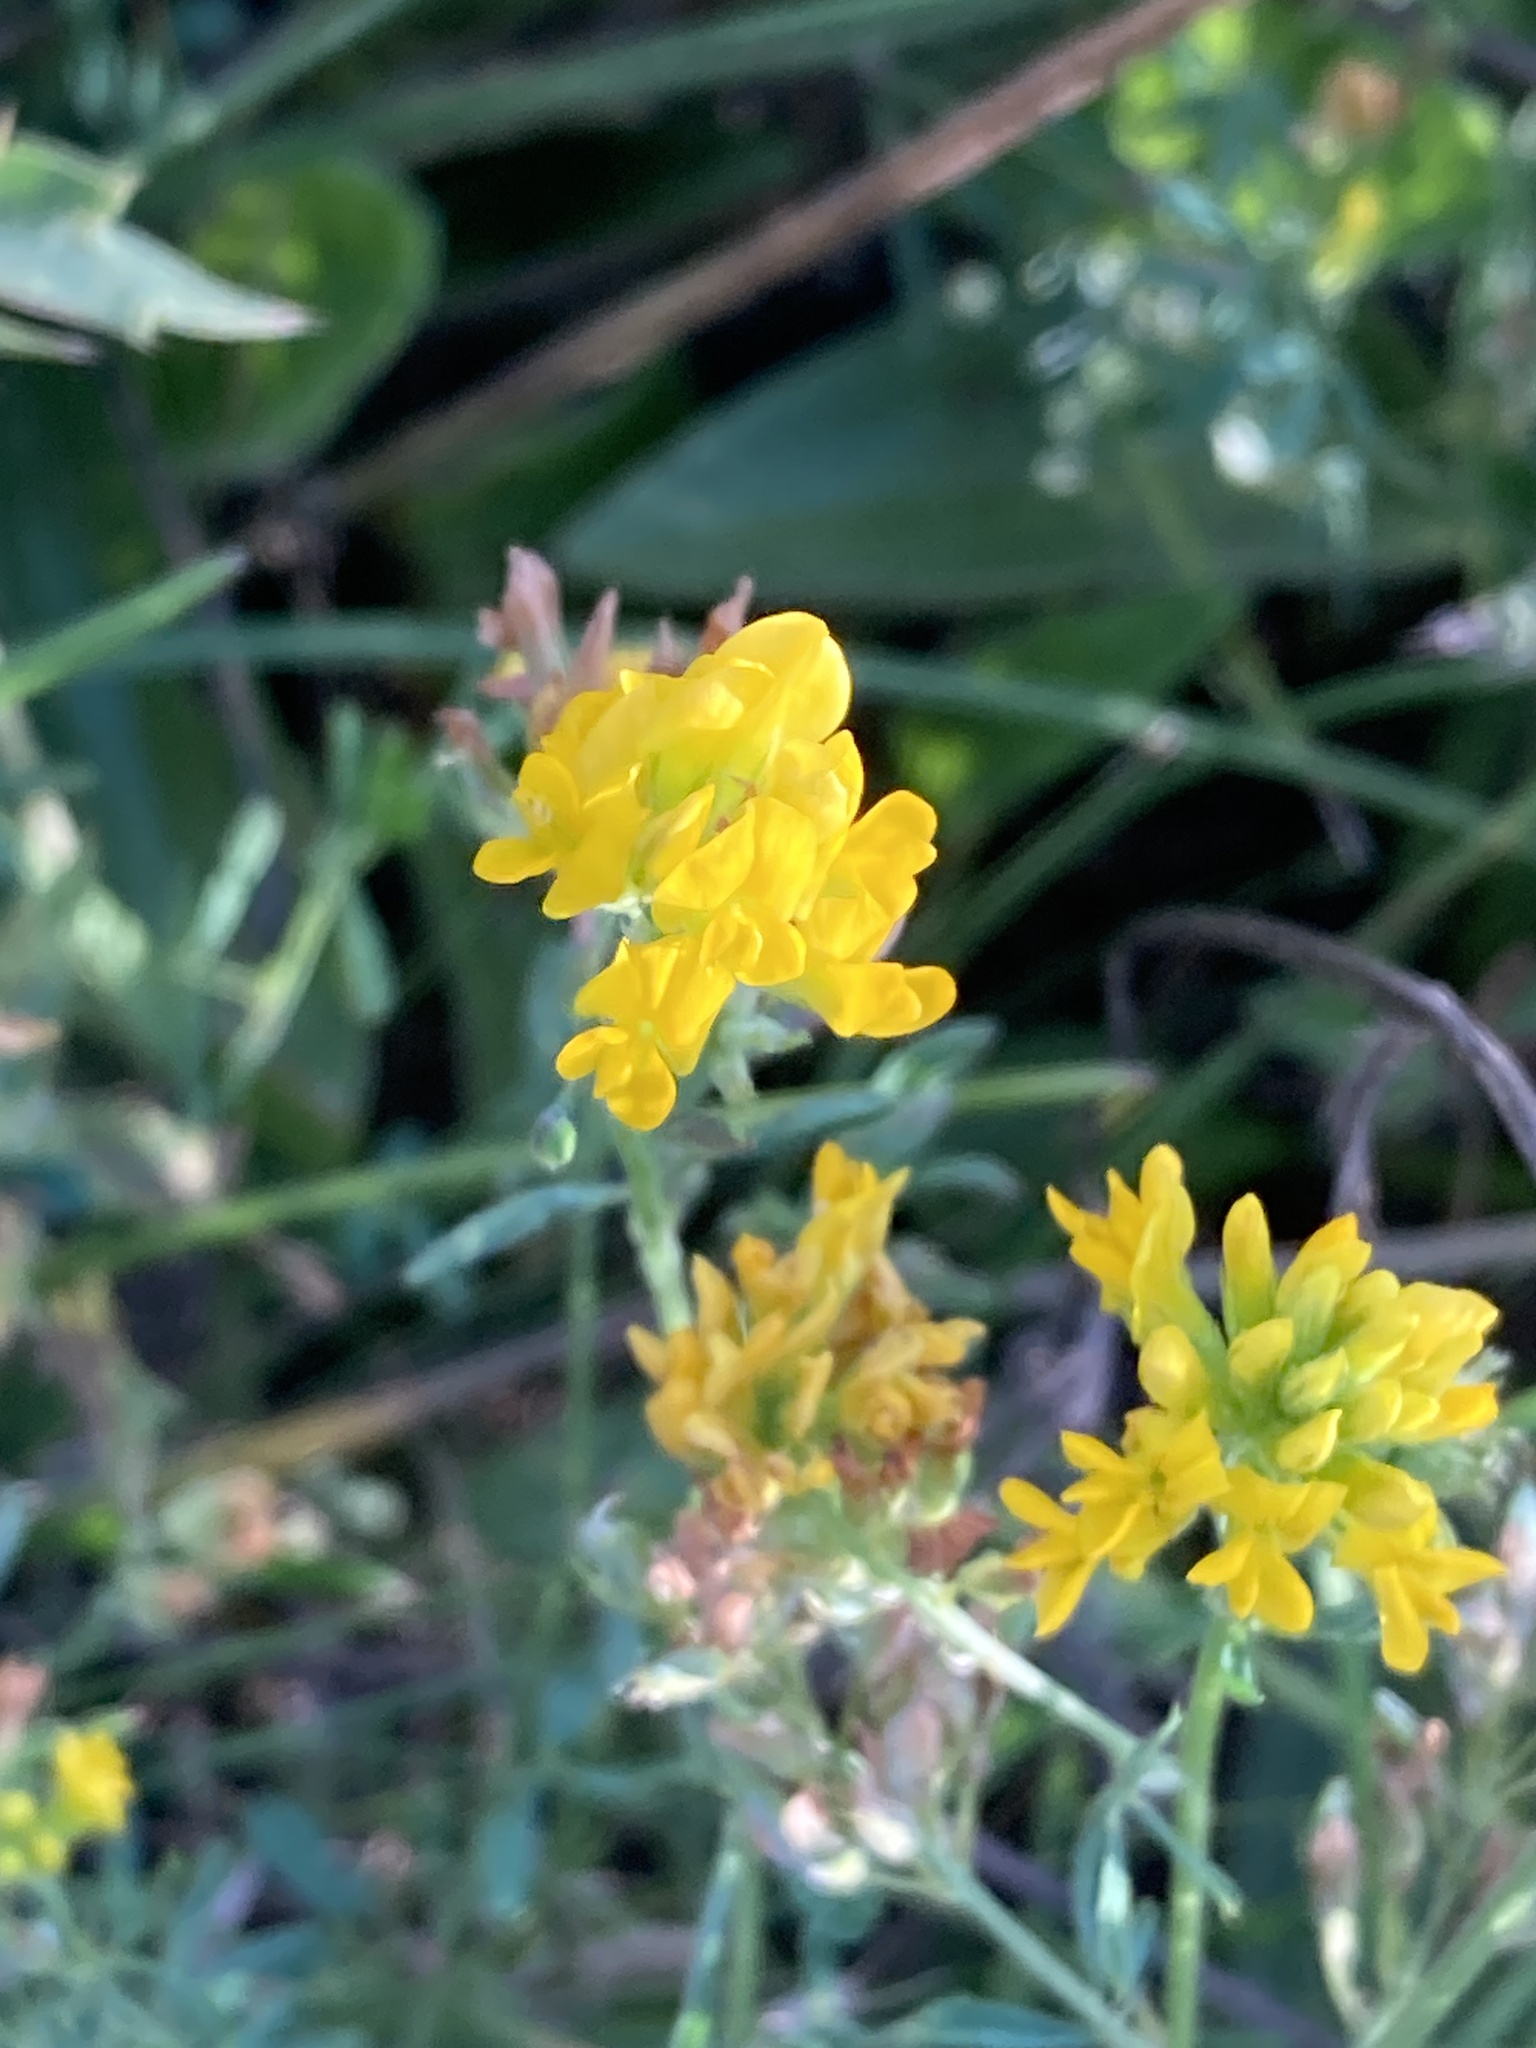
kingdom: Plantae
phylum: Tracheophyta
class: Magnoliopsida
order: Fabales
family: Fabaceae
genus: Medicago
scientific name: Medicago falcata
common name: Sickle medick
